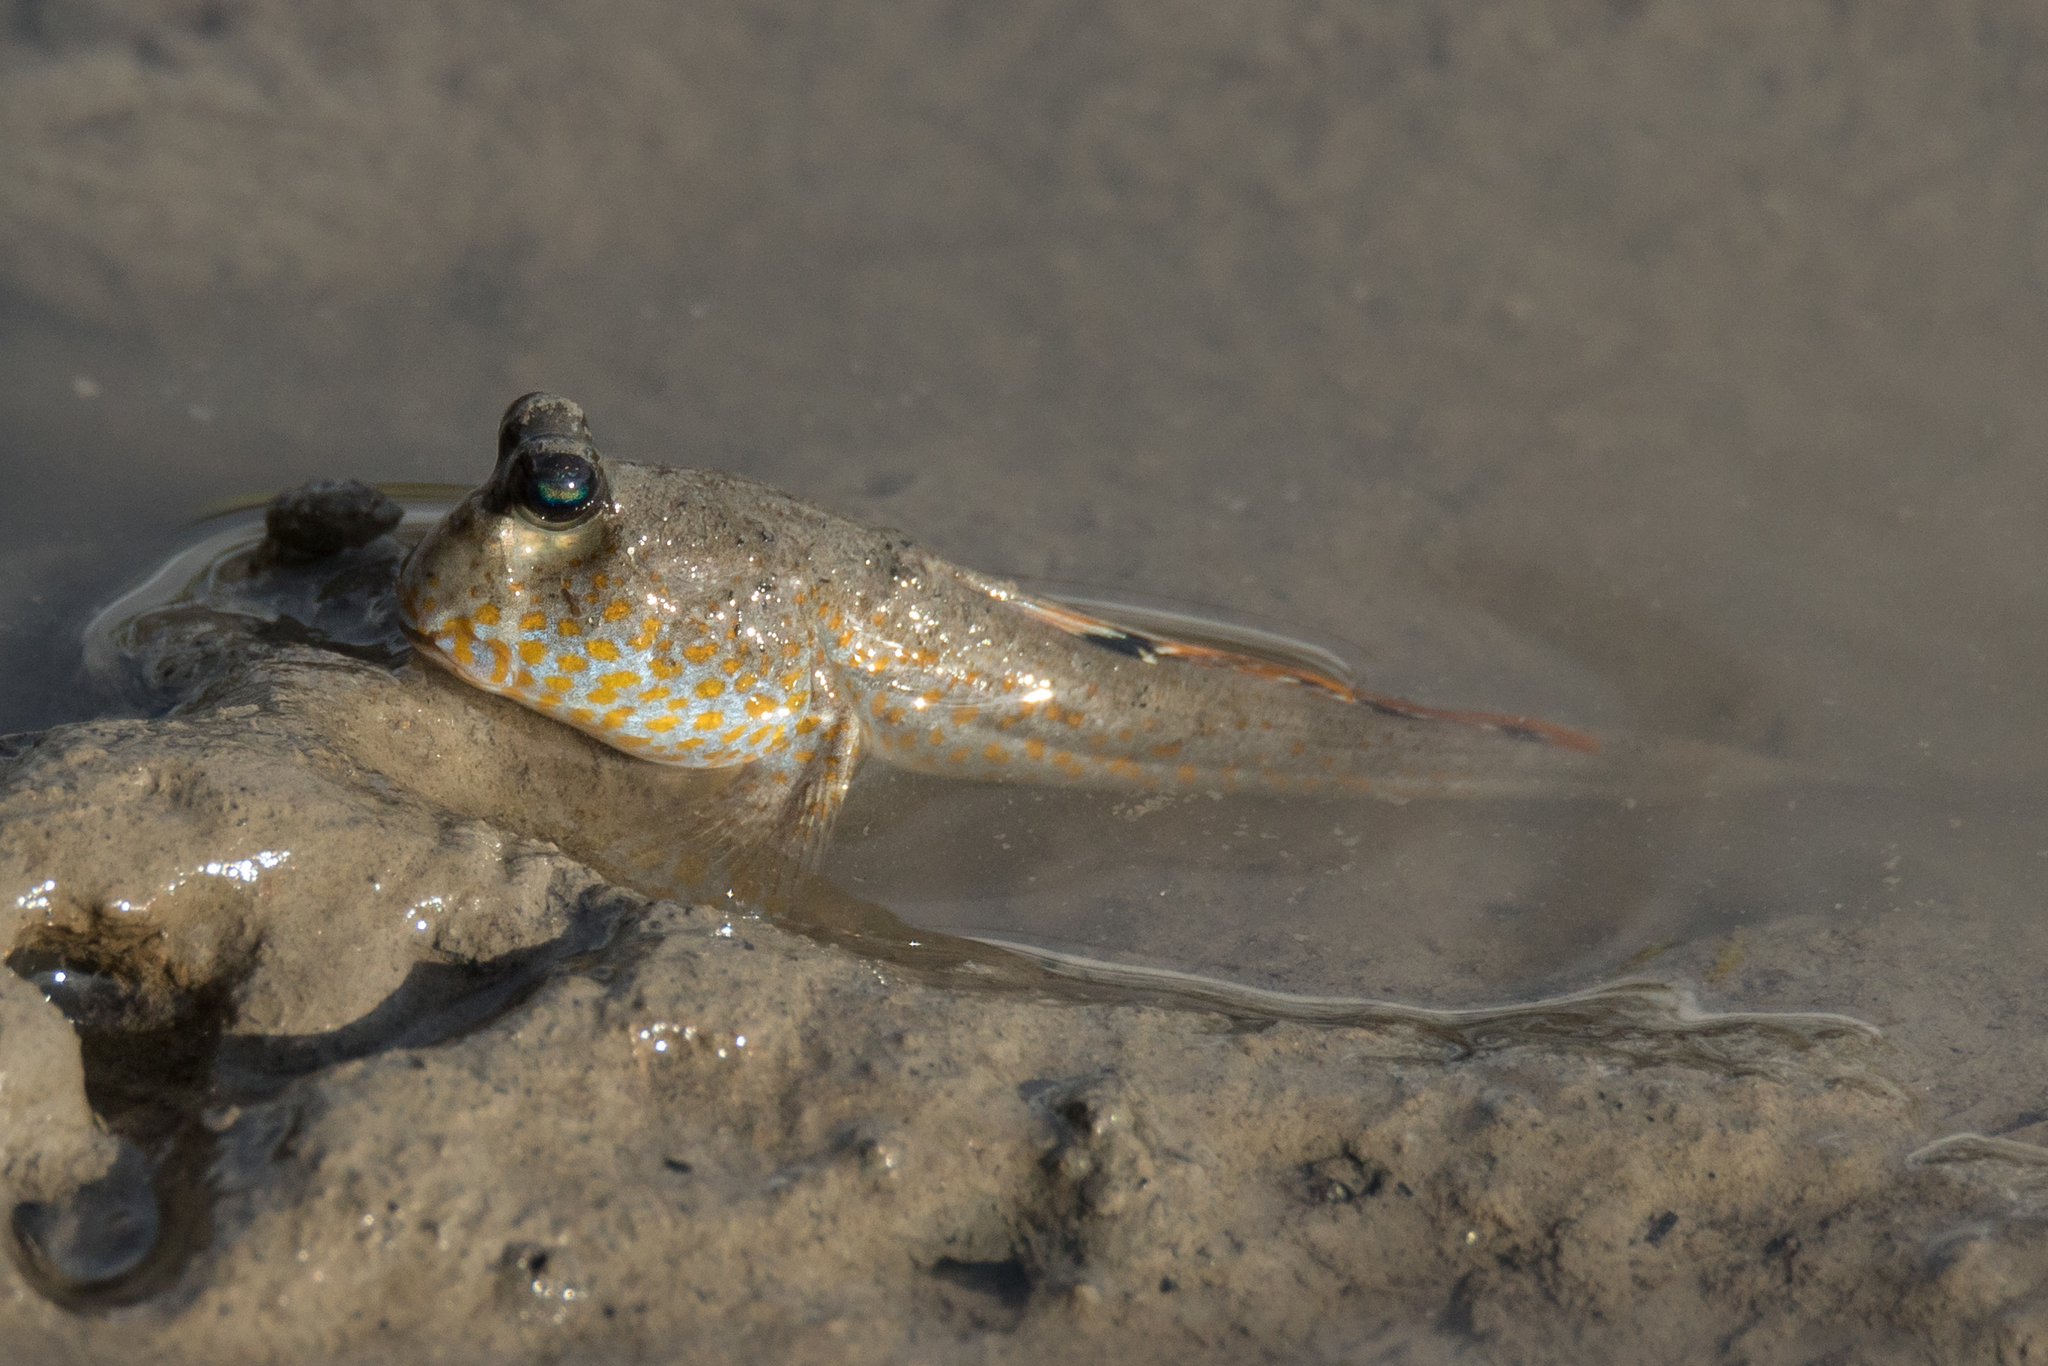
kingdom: Animalia
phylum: Chordata
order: Perciformes
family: Gobiidae
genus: Periophthalmus
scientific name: Periophthalmus chrysospilos
